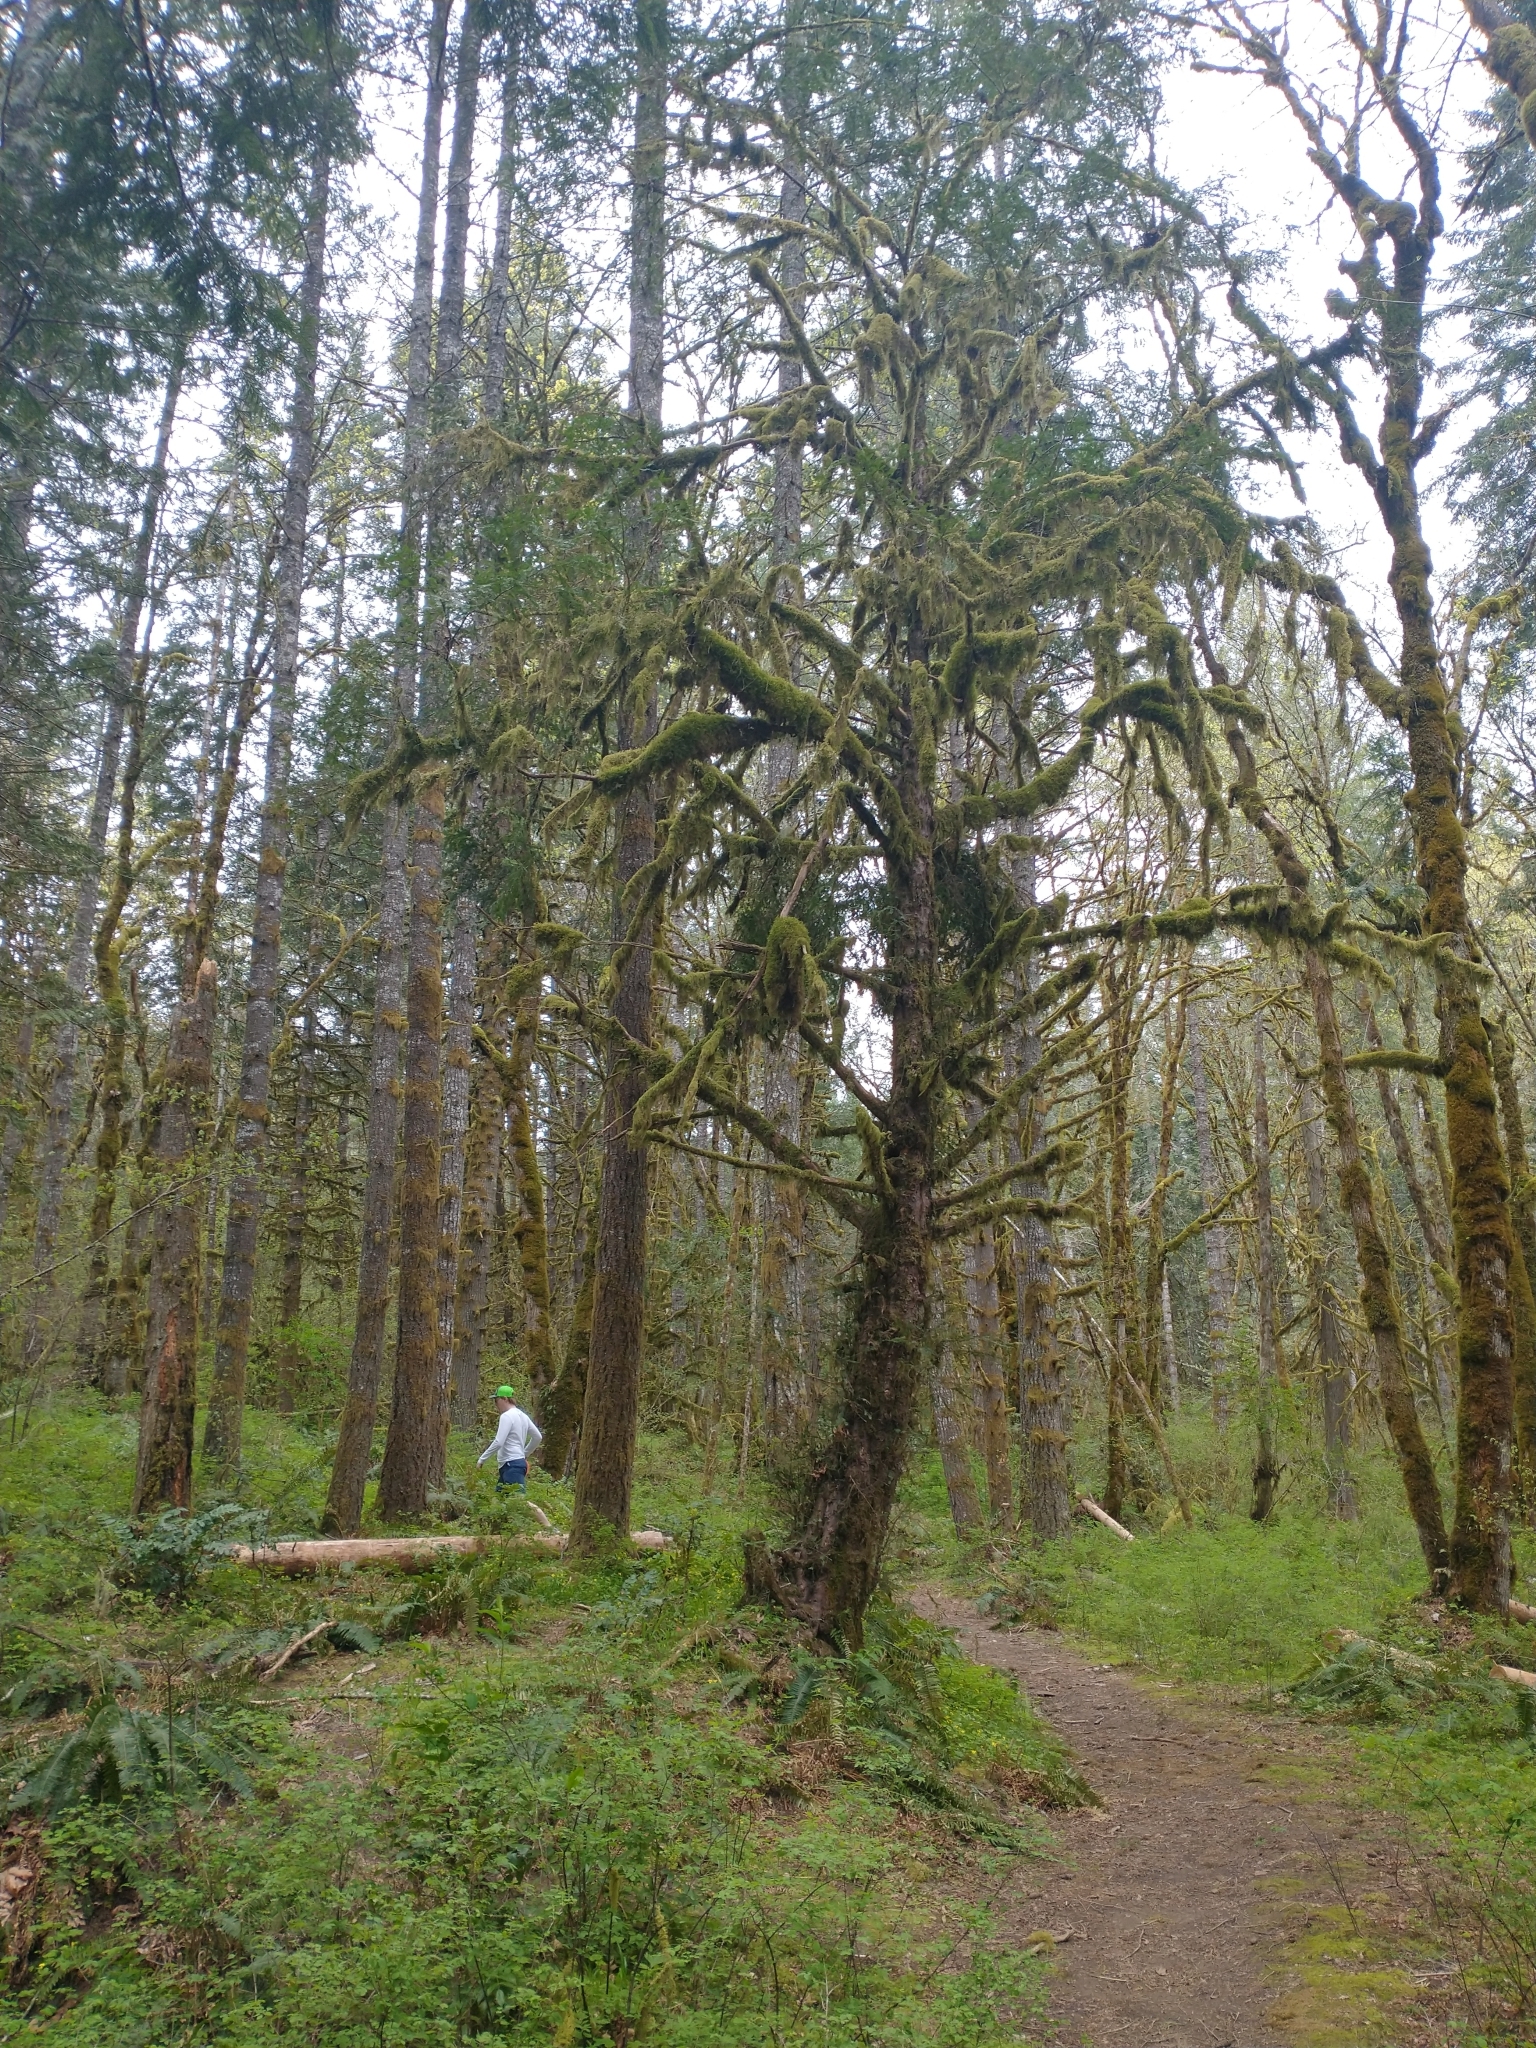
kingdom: Plantae
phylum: Tracheophyta
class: Pinopsida
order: Pinales
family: Taxaceae
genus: Taxus
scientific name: Taxus brevifolia
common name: Pacific yew
